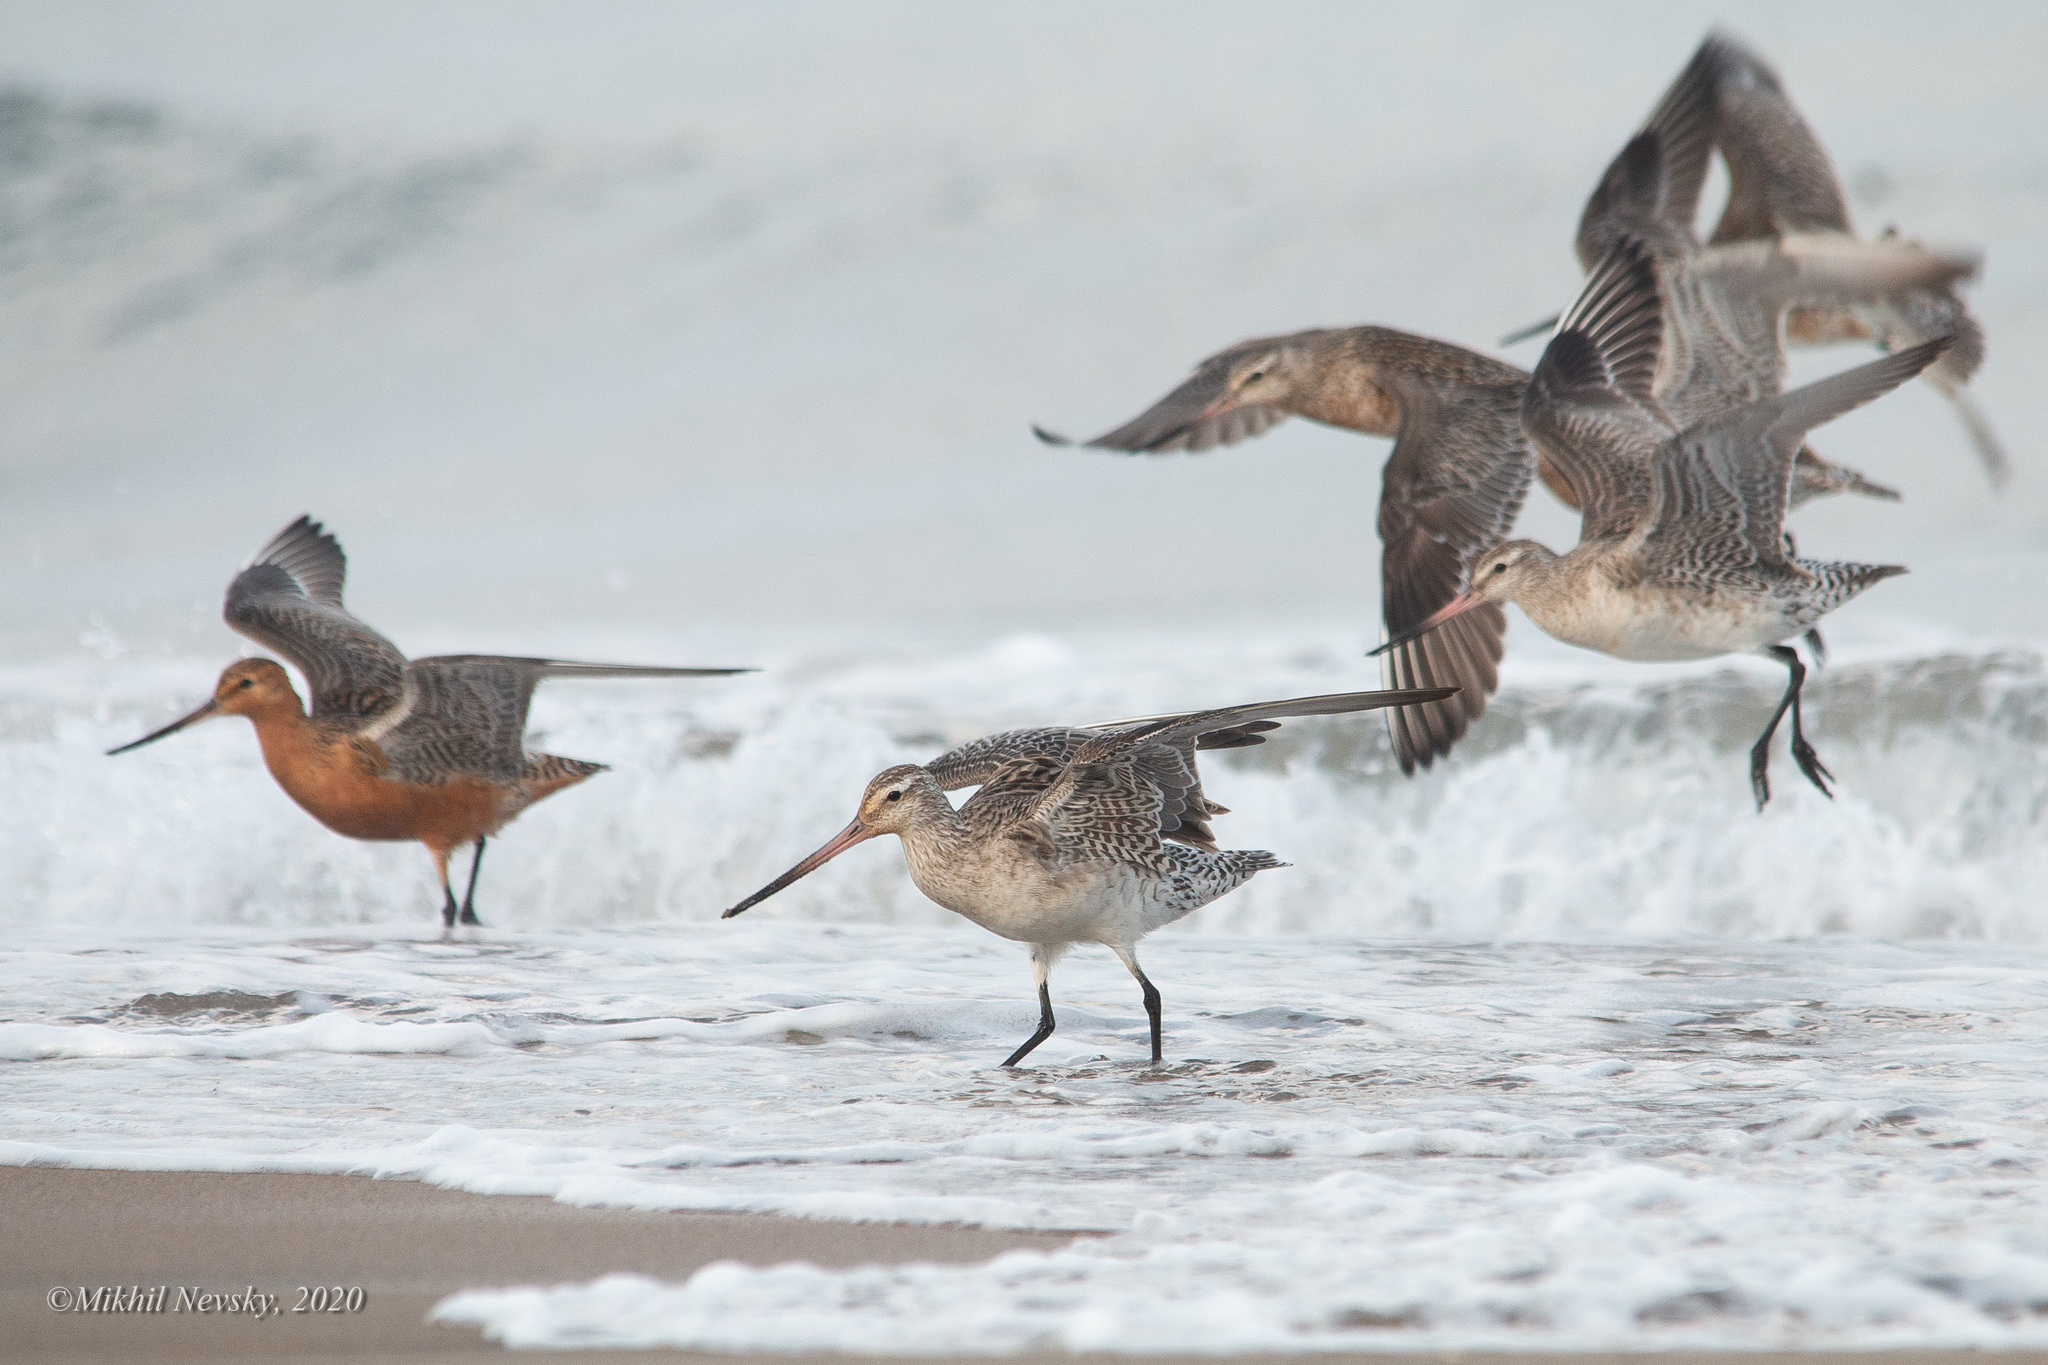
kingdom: Animalia
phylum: Chordata
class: Aves
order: Charadriiformes
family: Scolopacidae
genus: Limosa
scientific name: Limosa lapponica
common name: Bar-tailed godwit
